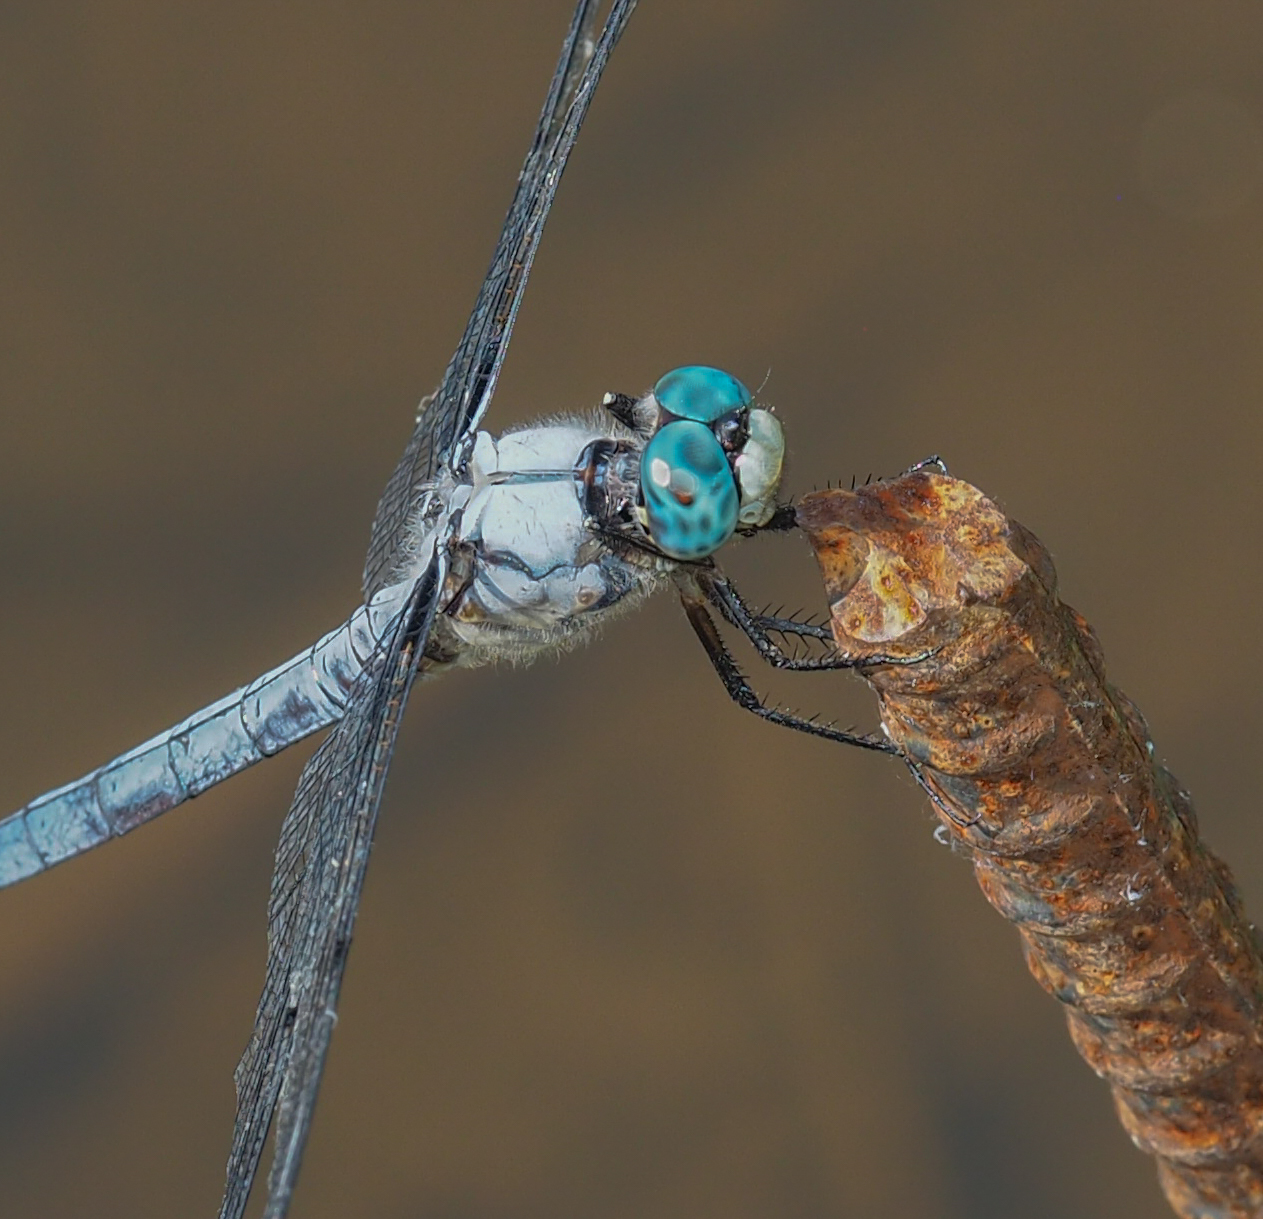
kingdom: Animalia
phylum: Arthropoda
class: Insecta
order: Odonata
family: Libellulidae
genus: Libellula
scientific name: Libellula vibrans
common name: Great blue skimmer
